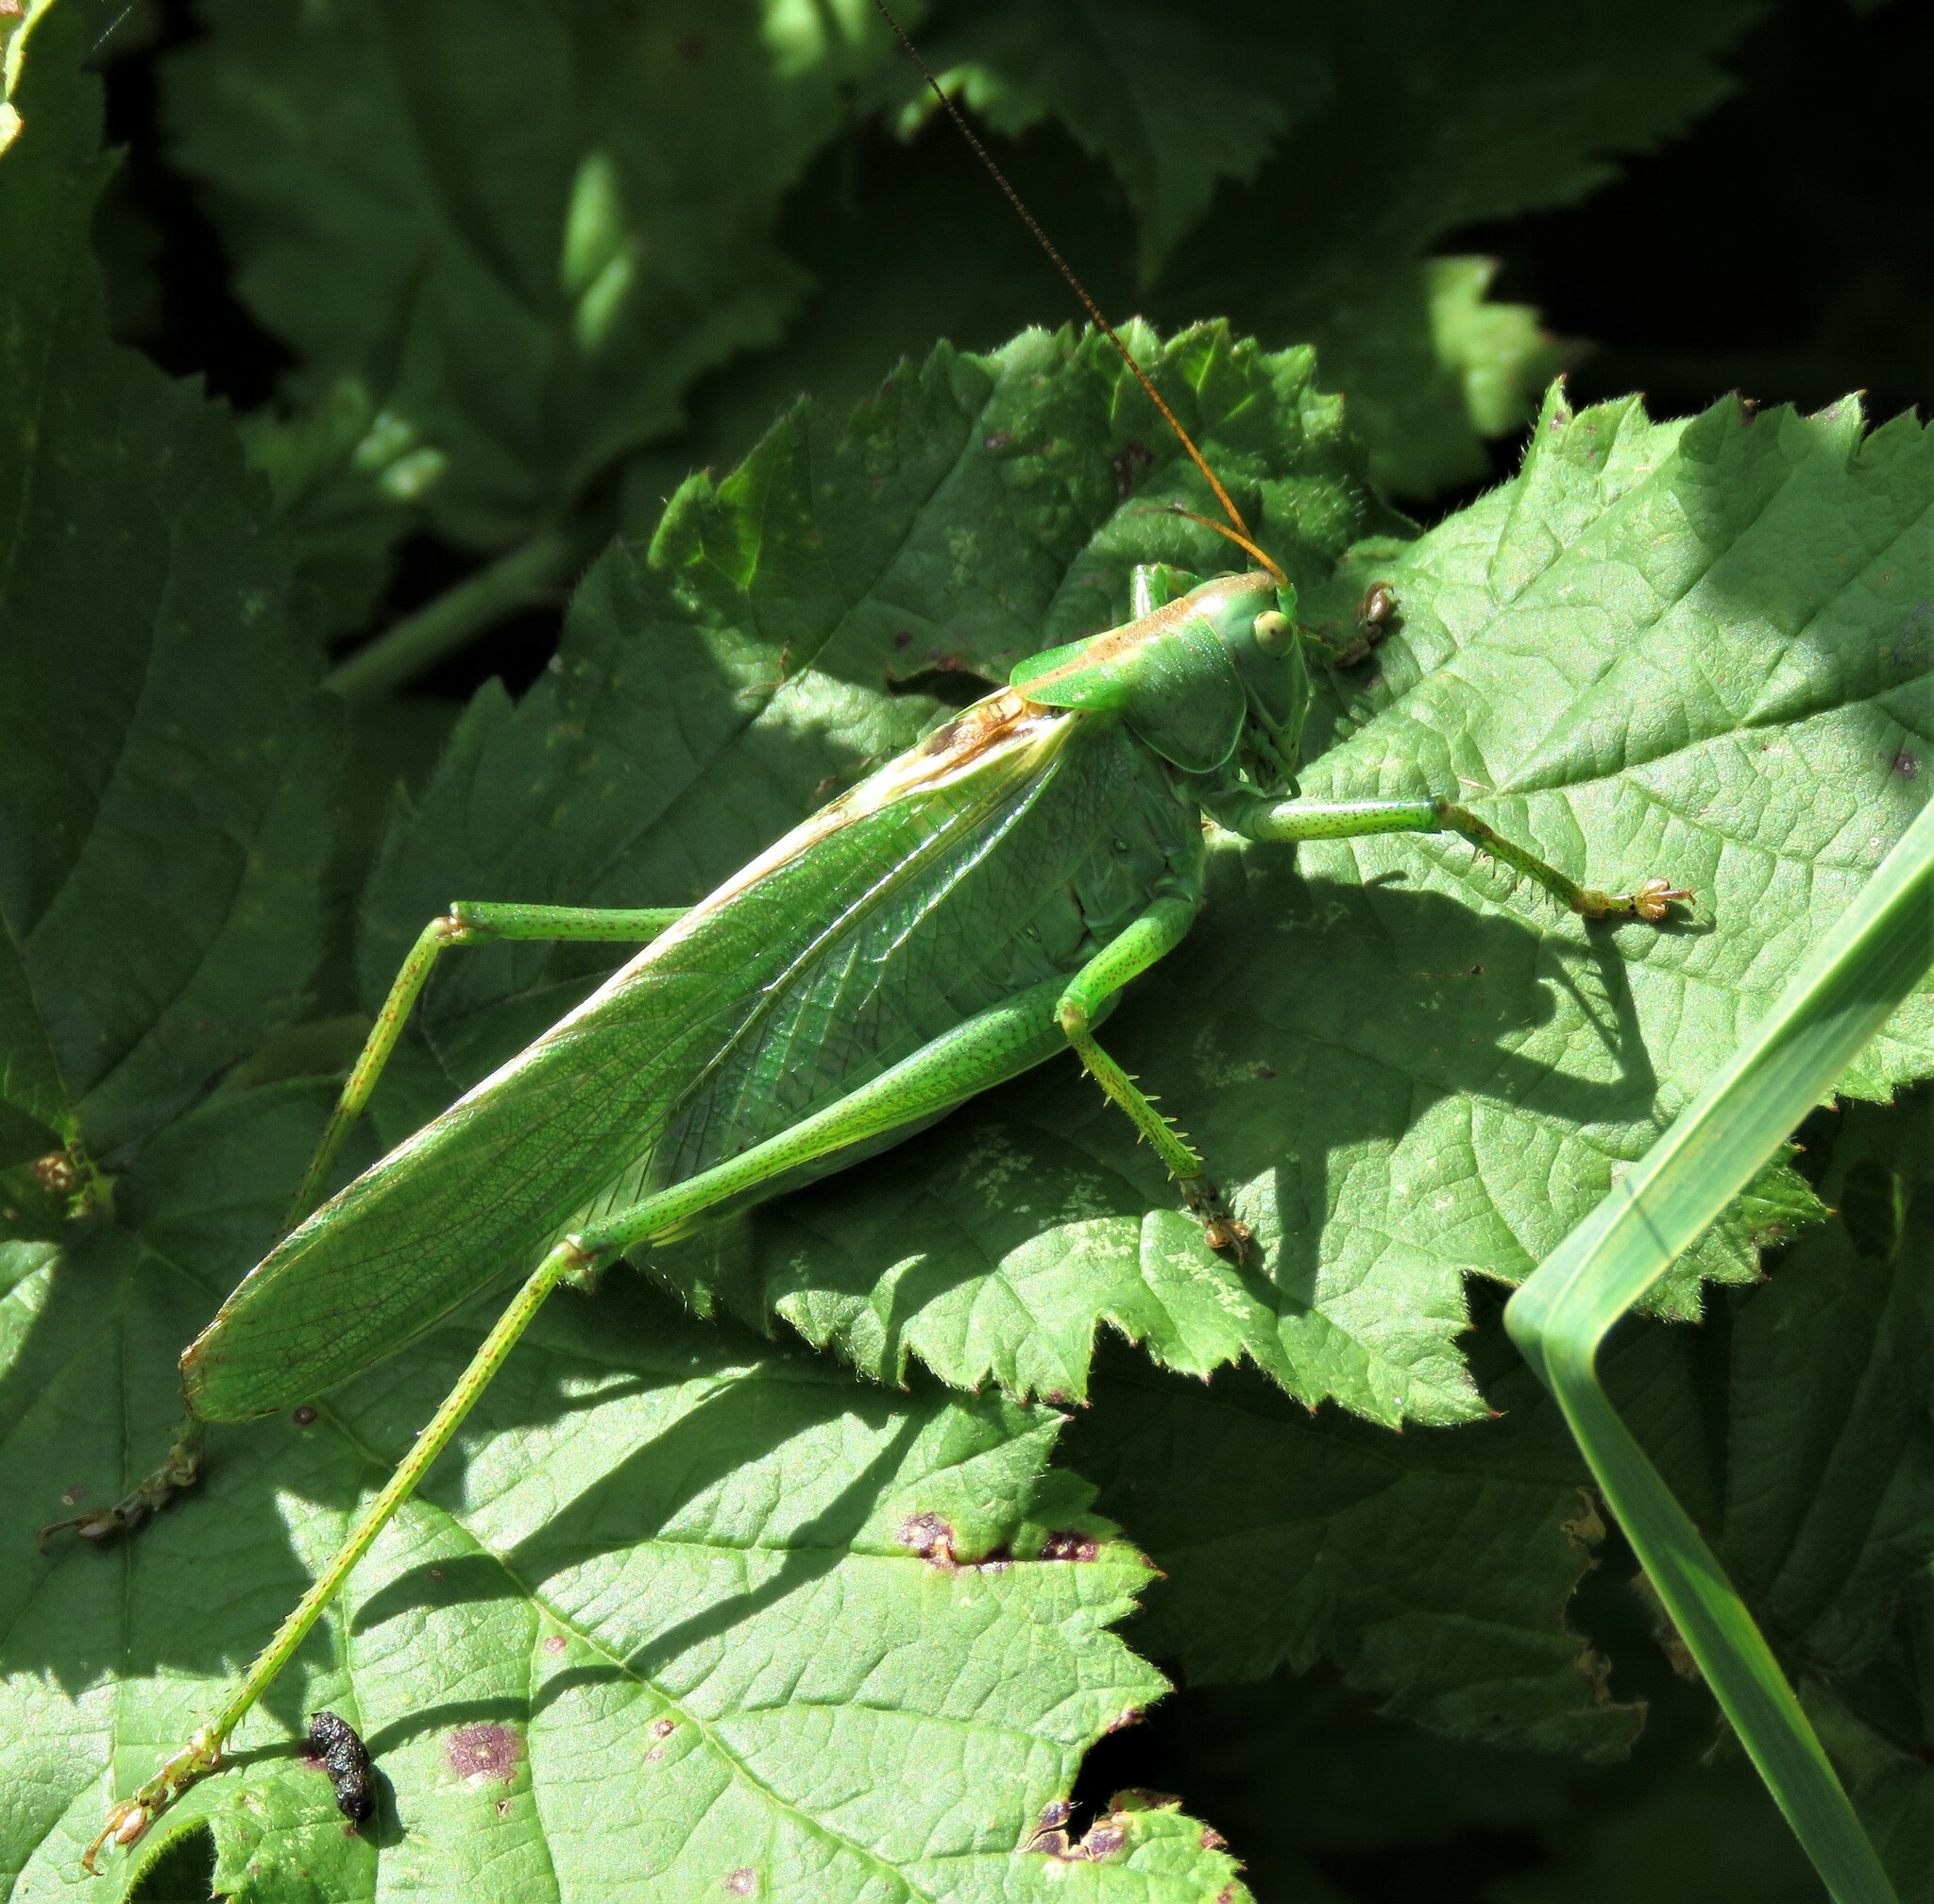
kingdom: Animalia
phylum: Arthropoda
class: Insecta
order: Orthoptera
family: Tettigoniidae
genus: Tettigonia
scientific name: Tettigonia viridissima
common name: Great green bush-cricket
